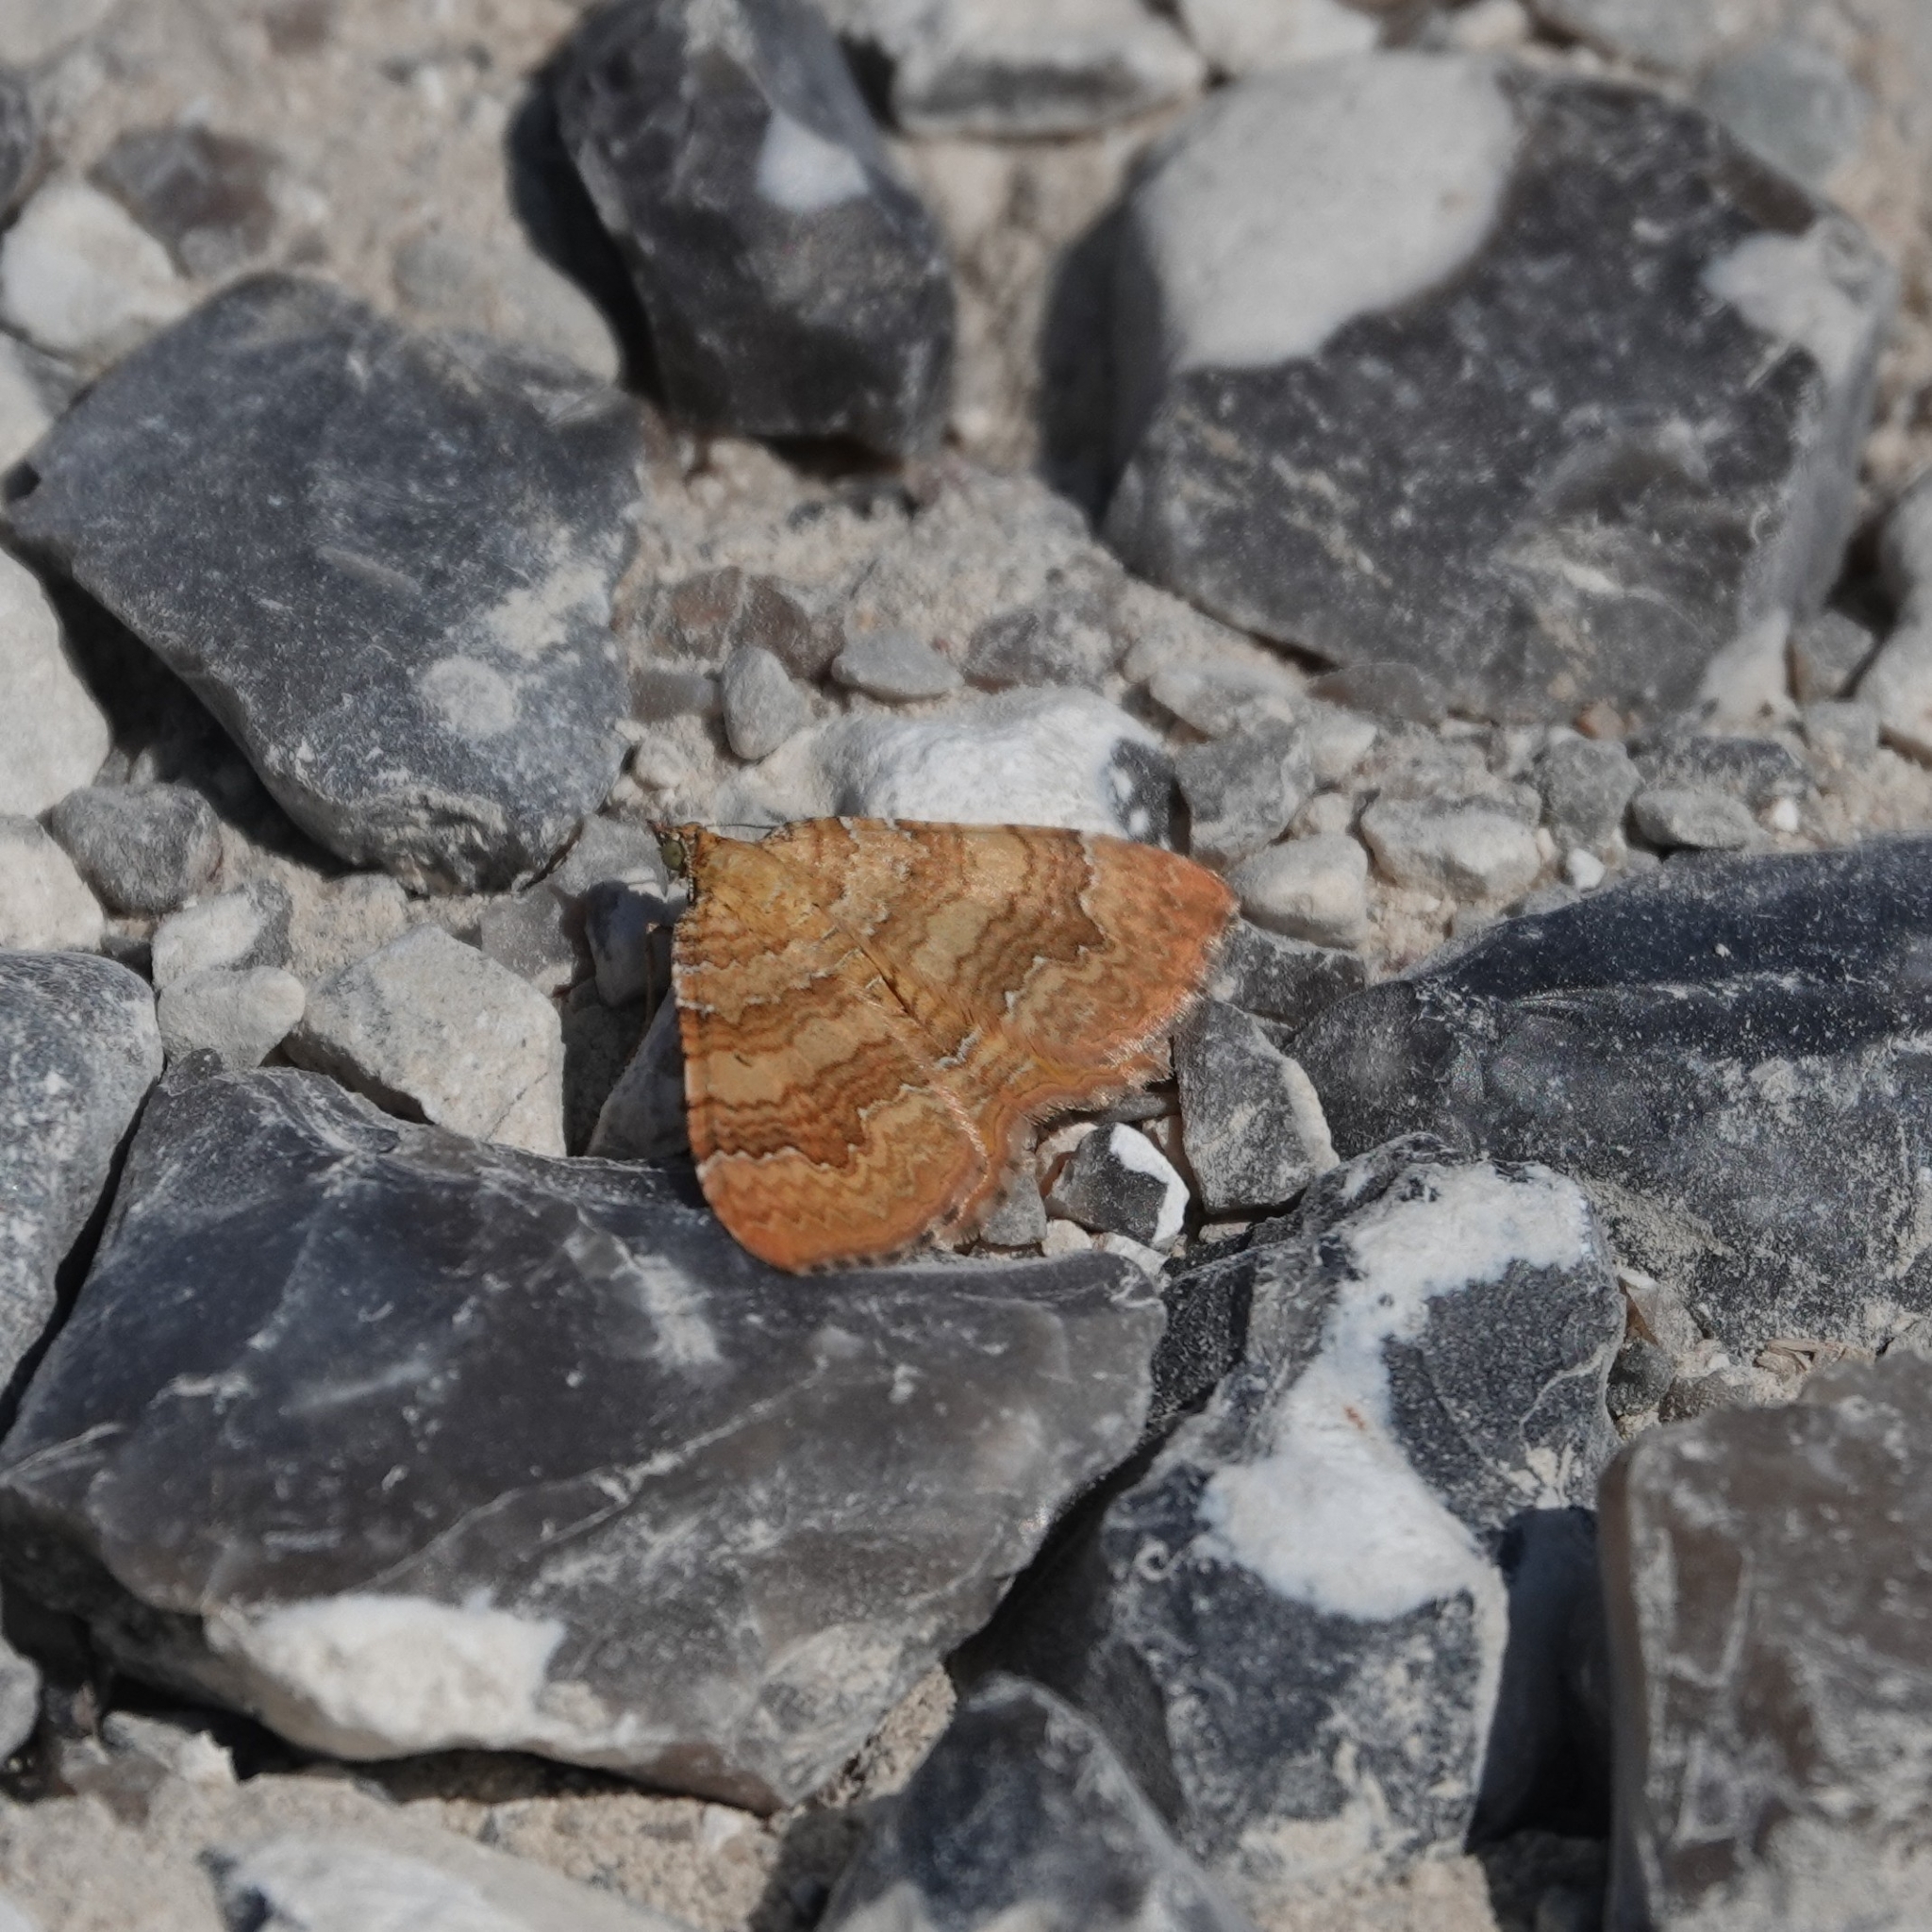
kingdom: Animalia
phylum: Arthropoda
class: Insecta
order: Lepidoptera
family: Geometridae
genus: Camptogramma
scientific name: Camptogramma bilineata
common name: Yellow shell
